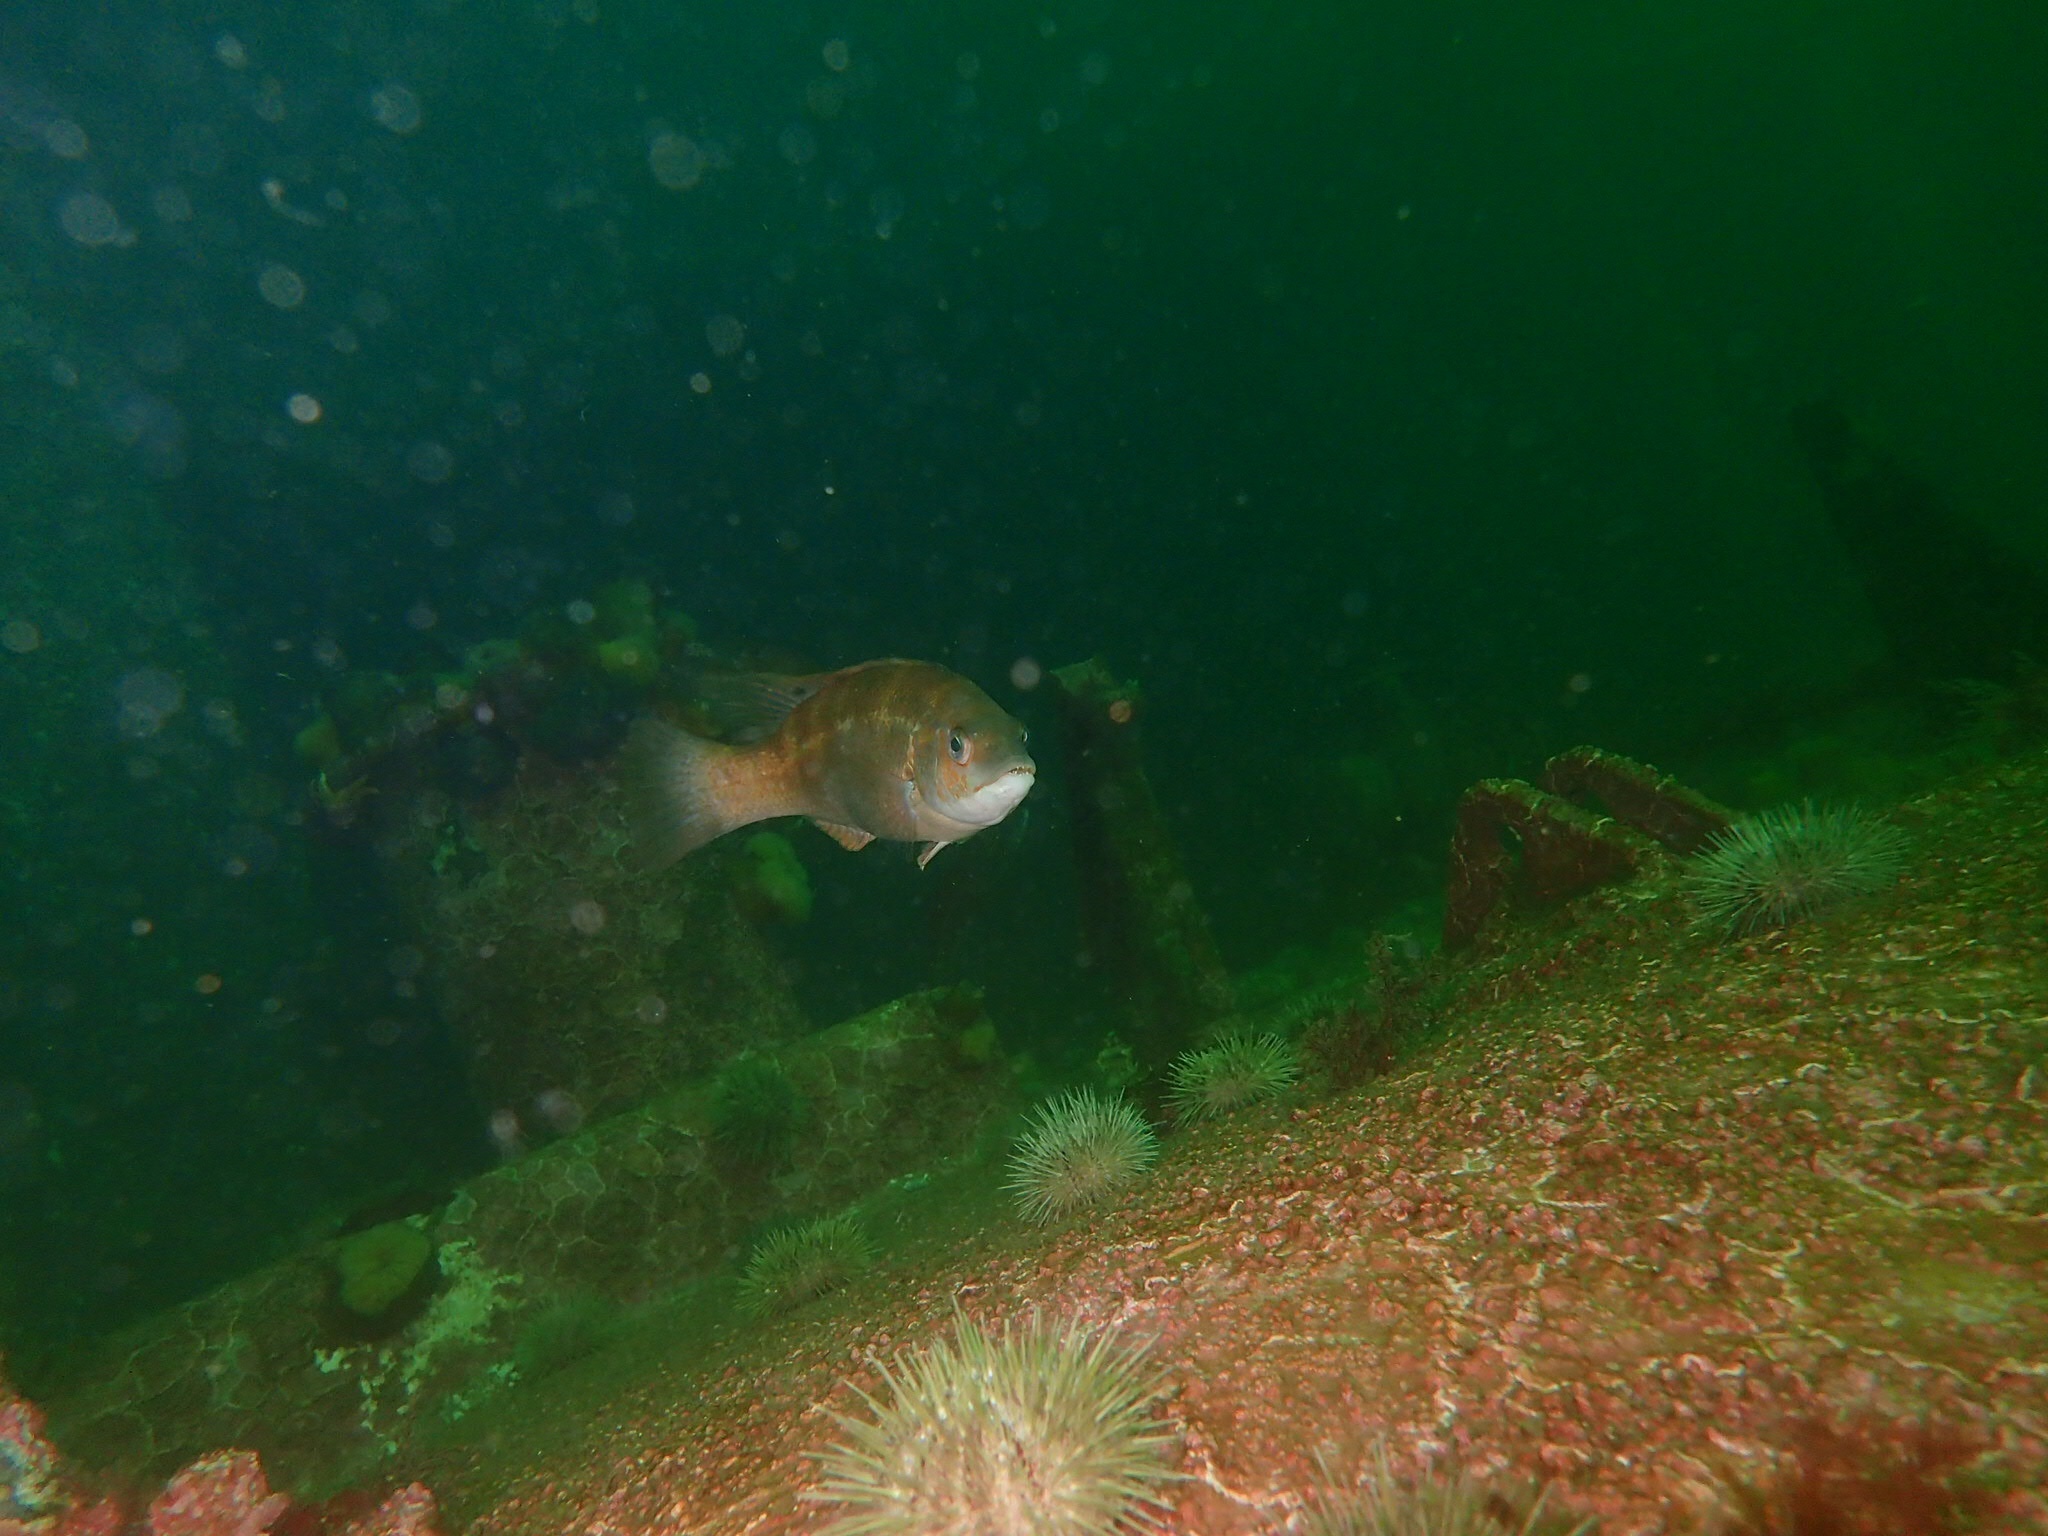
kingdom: Animalia
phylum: Chordata
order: Perciformes
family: Labridae
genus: Tautogolabrus
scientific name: Tautogolabrus adspersus
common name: Cunner
